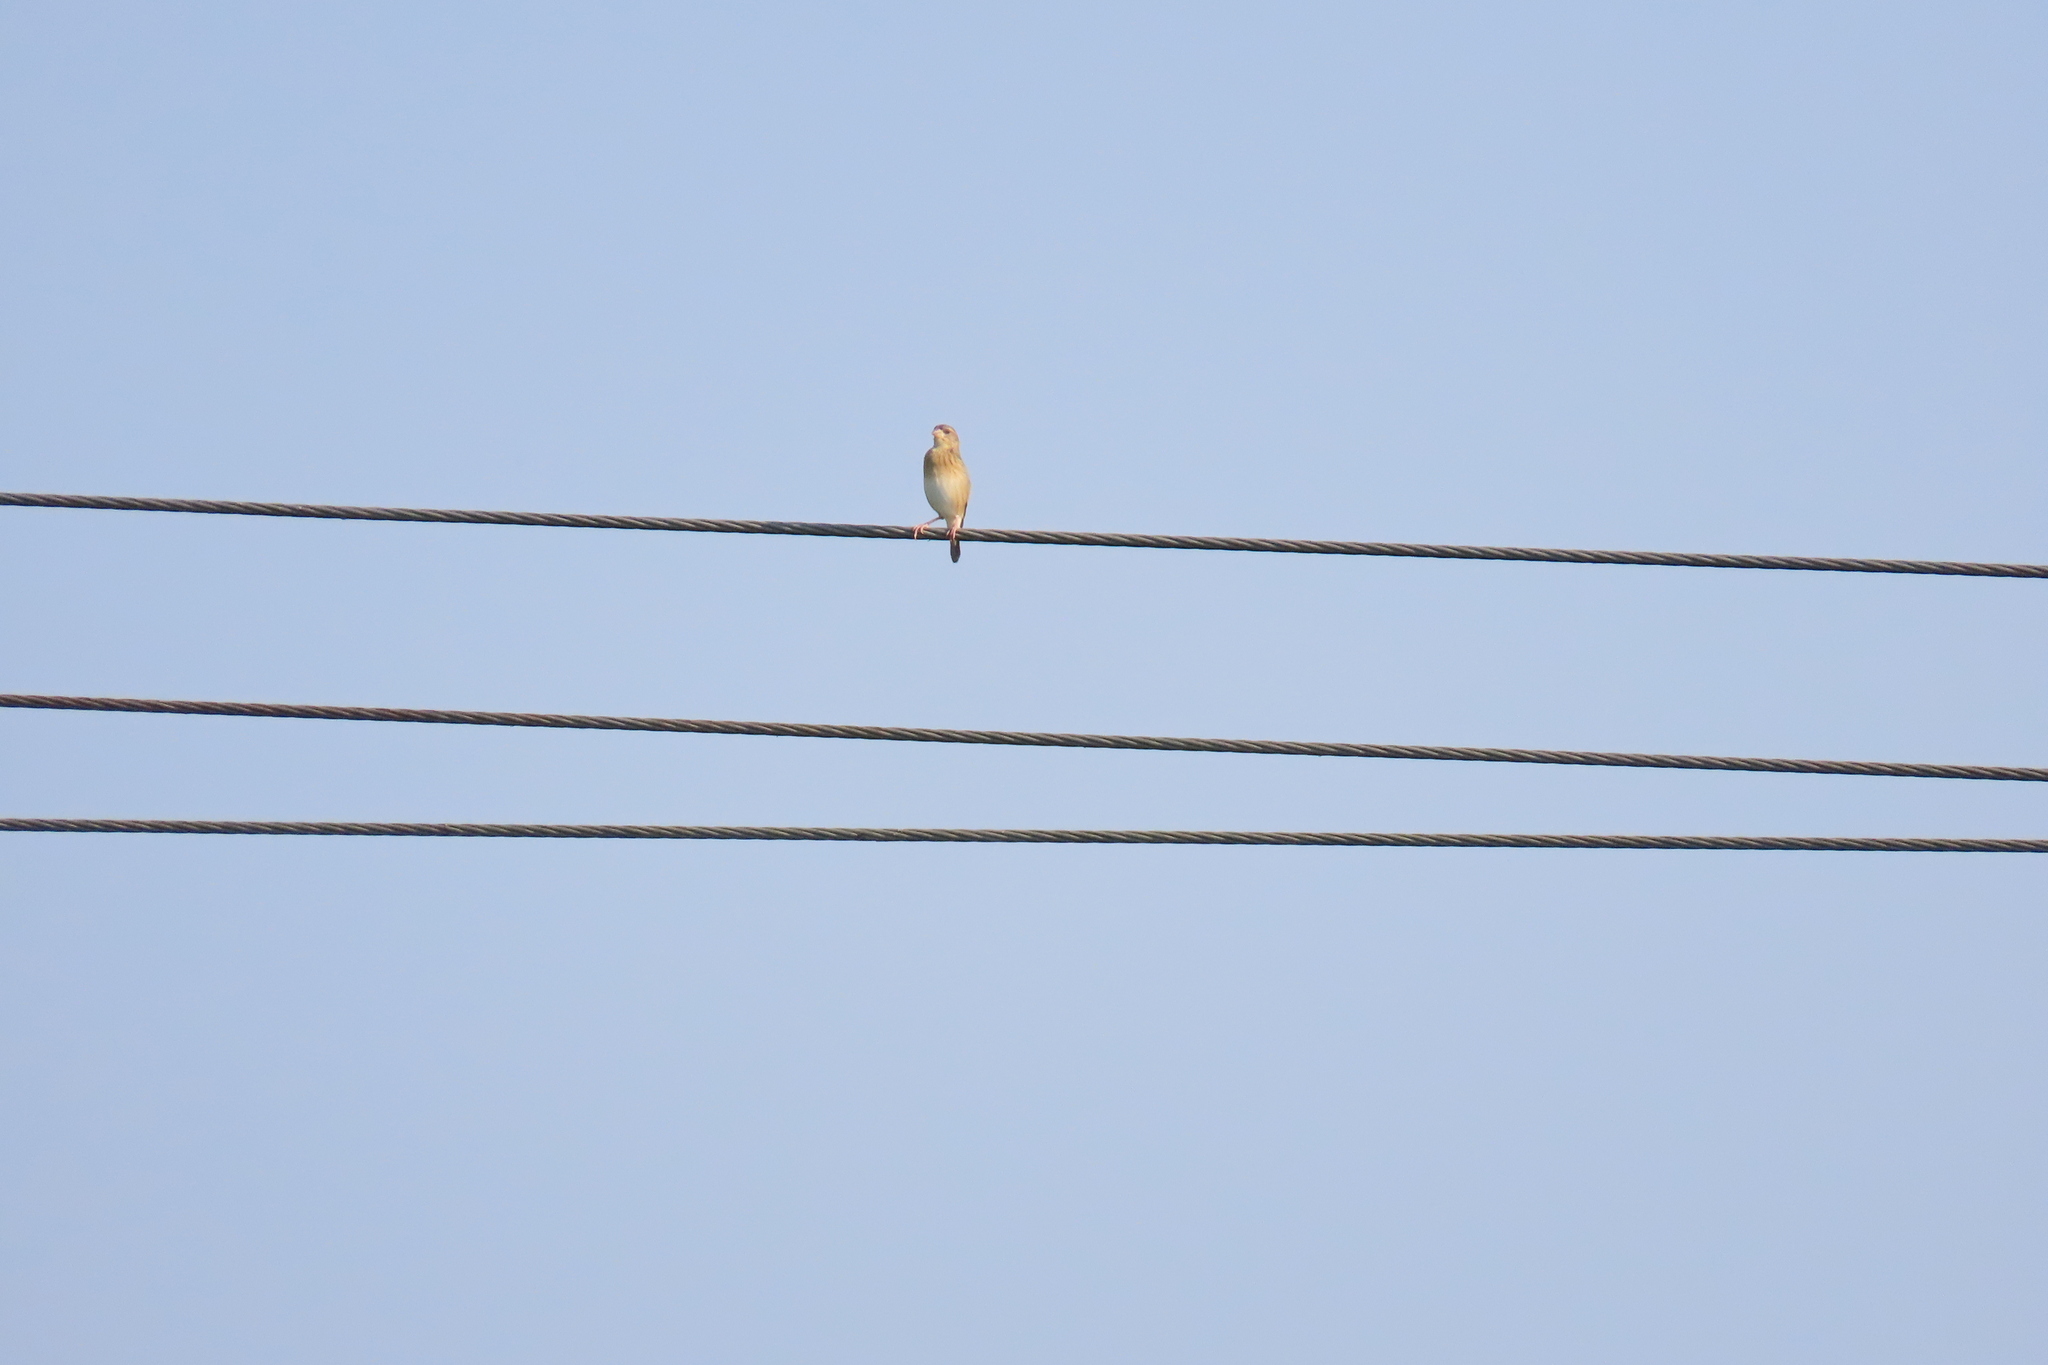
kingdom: Animalia
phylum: Chordata
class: Aves
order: Passeriformes
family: Ploceidae
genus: Ploceus
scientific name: Ploceus philippinus
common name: Baya weaver
